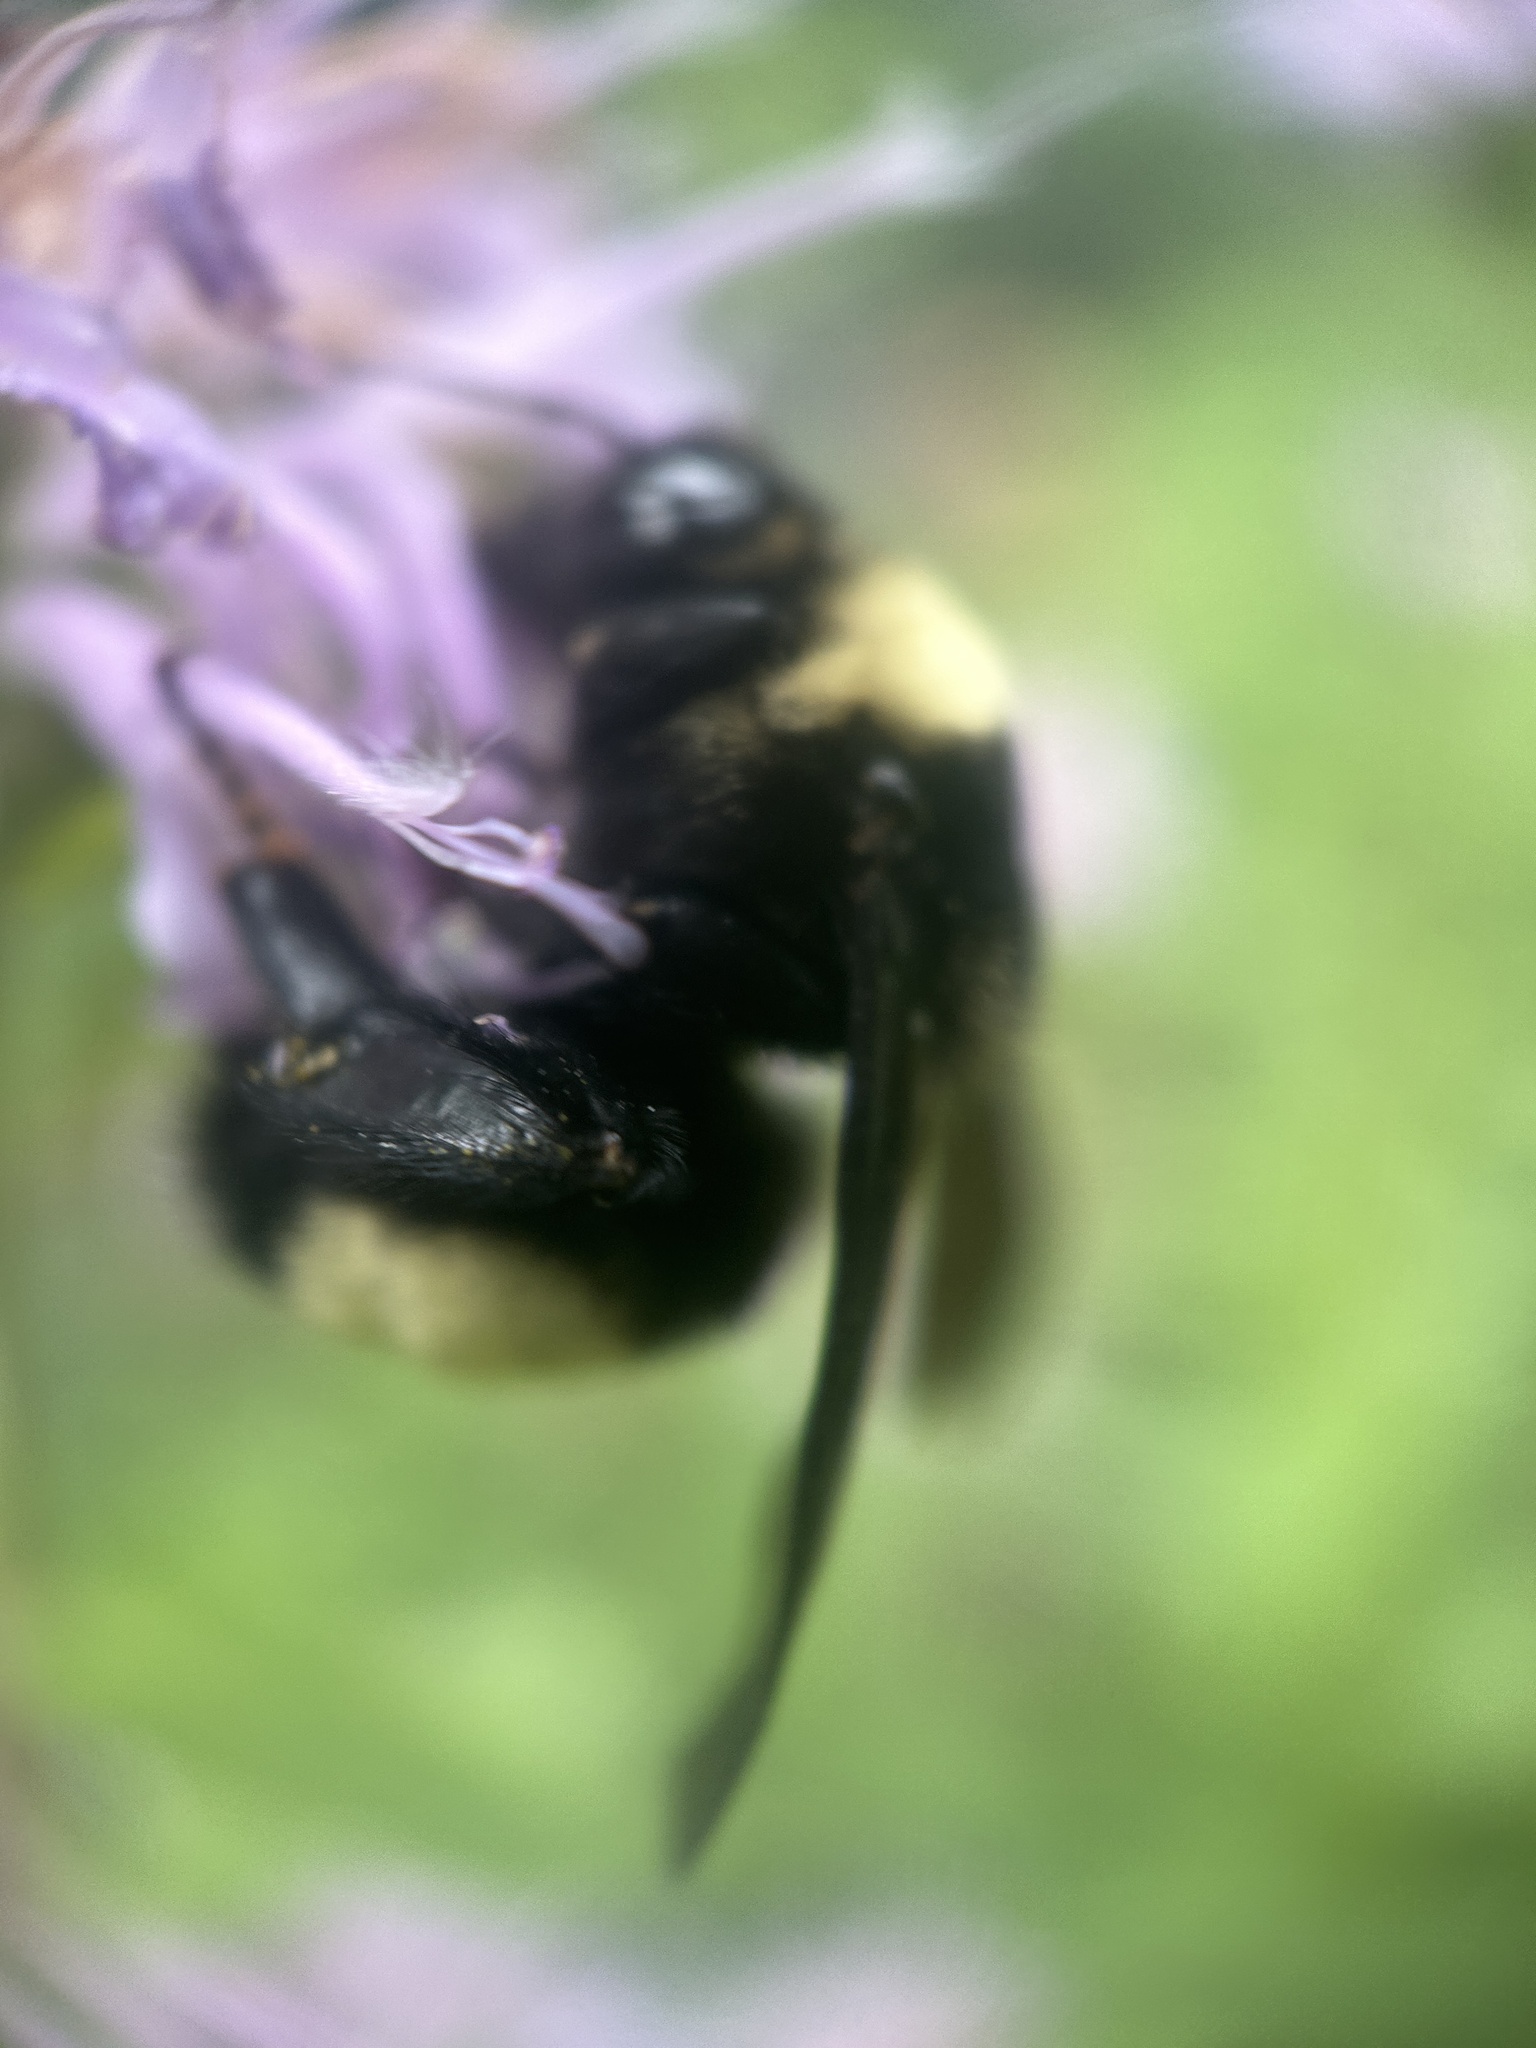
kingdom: Animalia
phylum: Arthropoda
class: Insecta
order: Hymenoptera
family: Apidae
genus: Bombus
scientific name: Bombus auricomus
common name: Black and gold bumble bee
